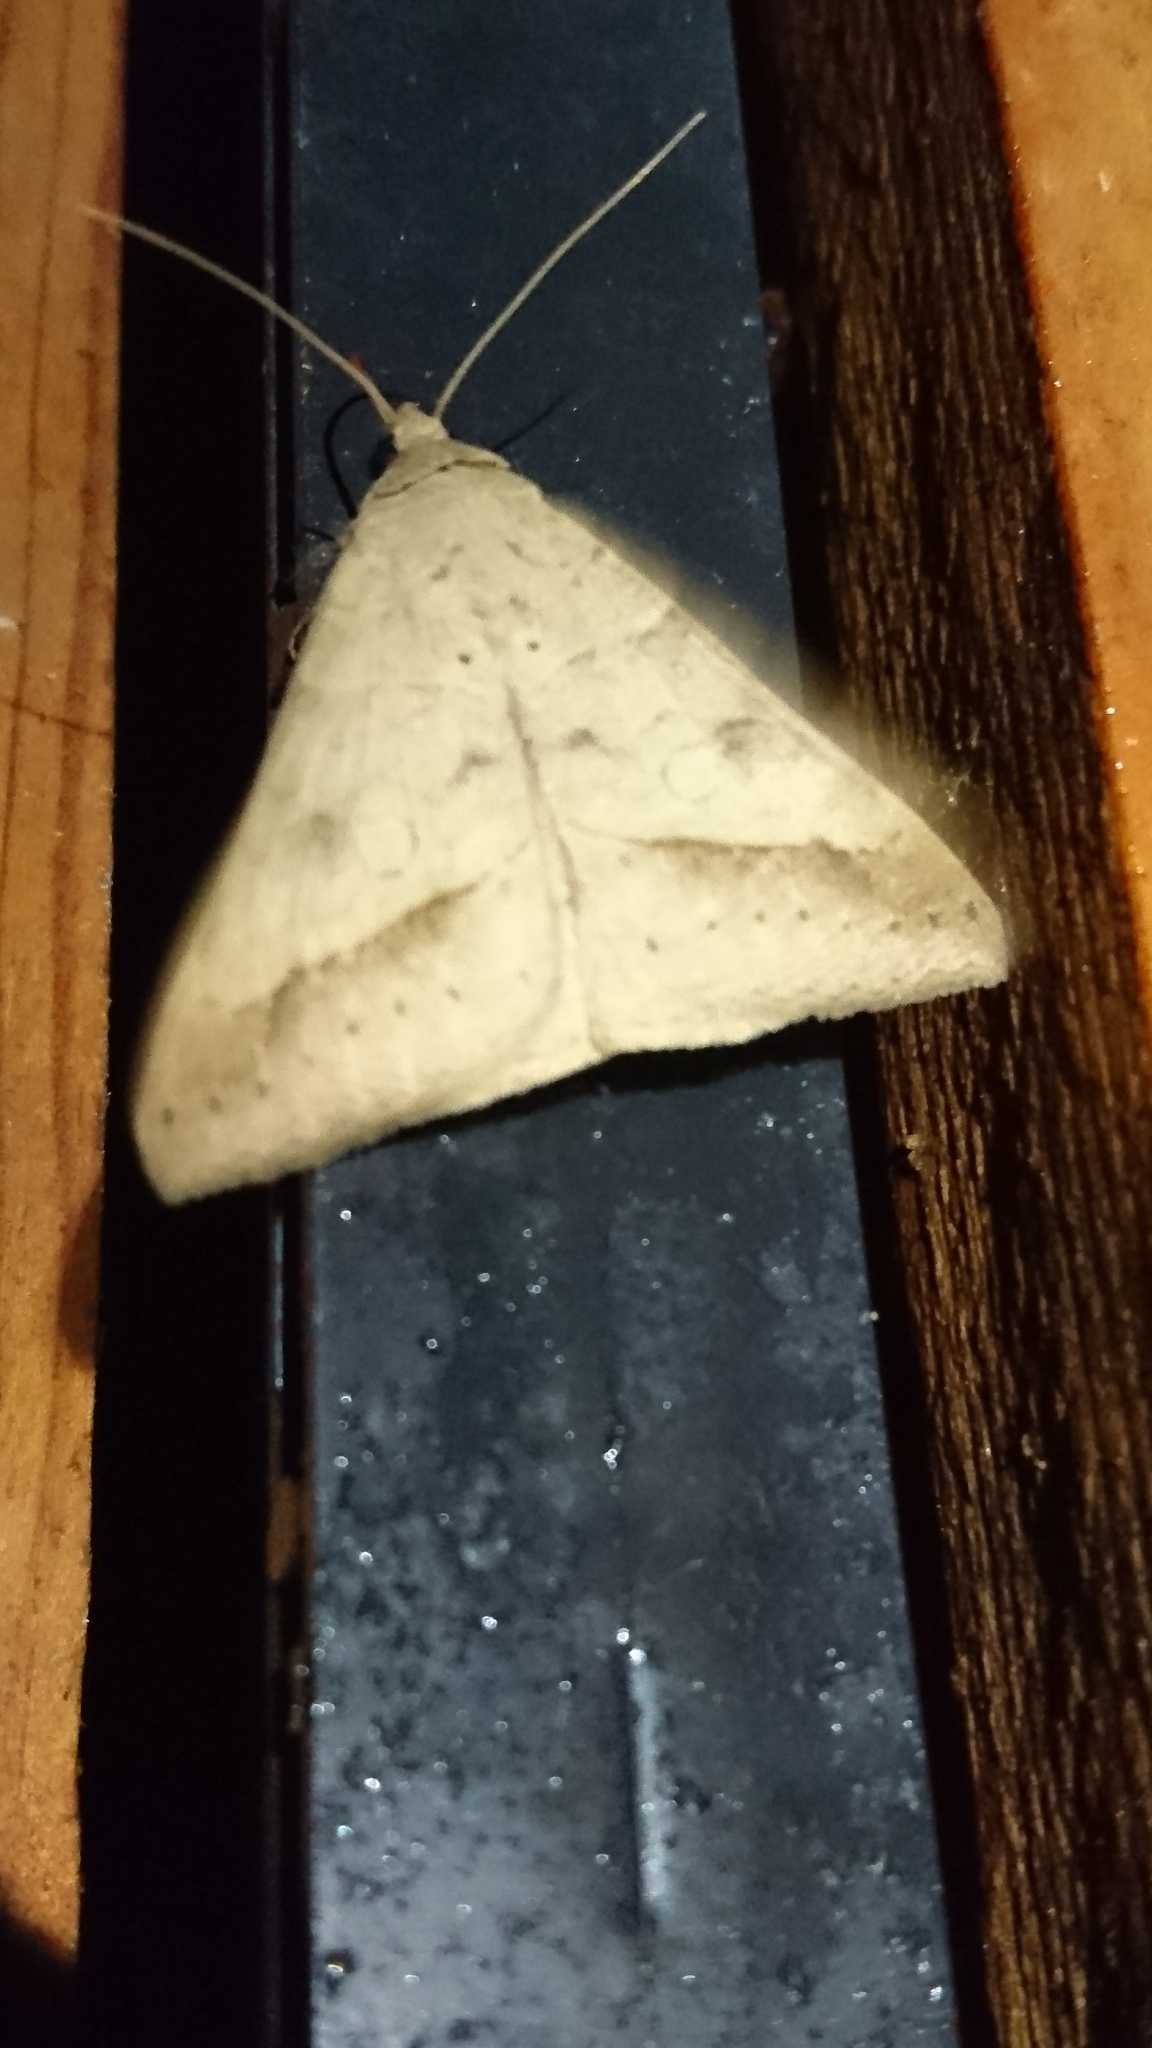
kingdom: Animalia
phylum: Arthropoda
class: Insecta
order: Lepidoptera
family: Erebidae
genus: Mocis
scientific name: Mocis disseverans
